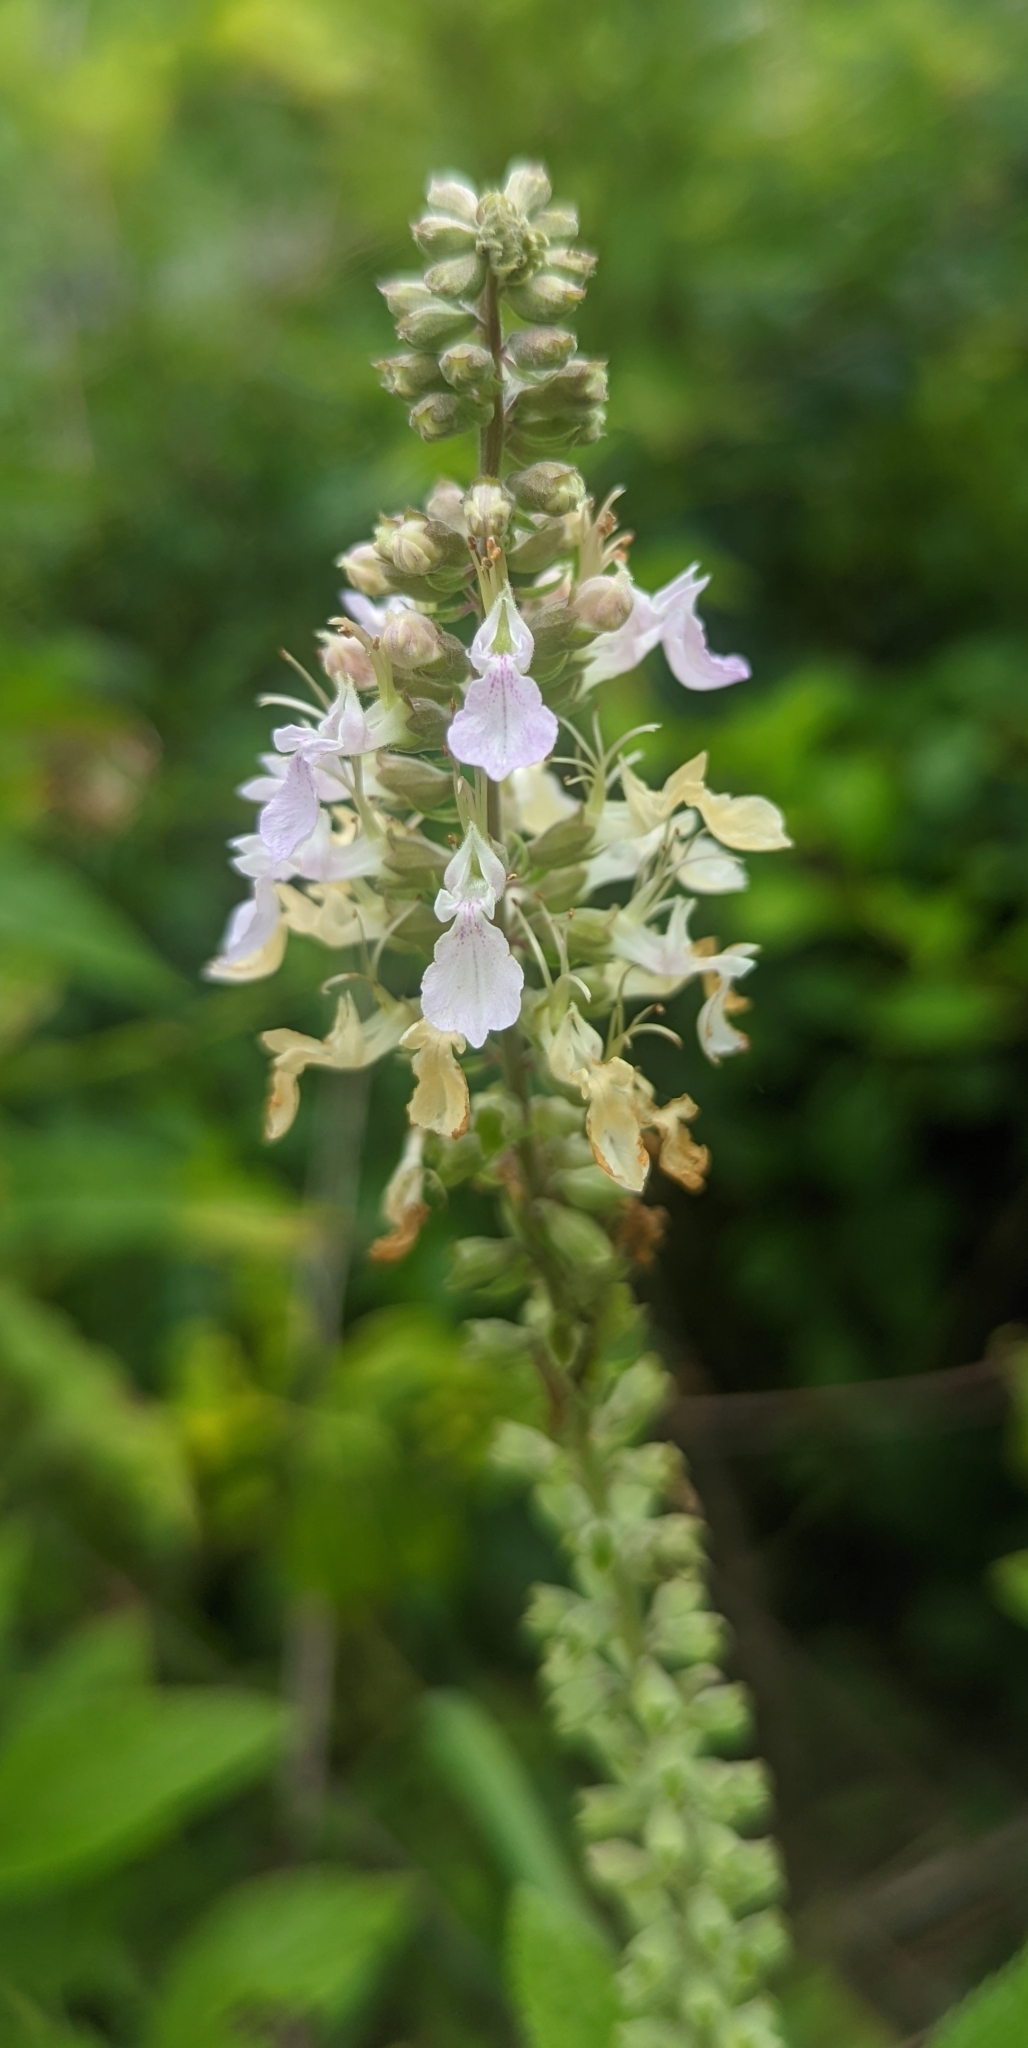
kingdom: Plantae
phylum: Tracheophyta
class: Magnoliopsida
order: Lamiales
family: Lamiaceae
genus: Teucrium
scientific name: Teucrium canadense
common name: American germander
